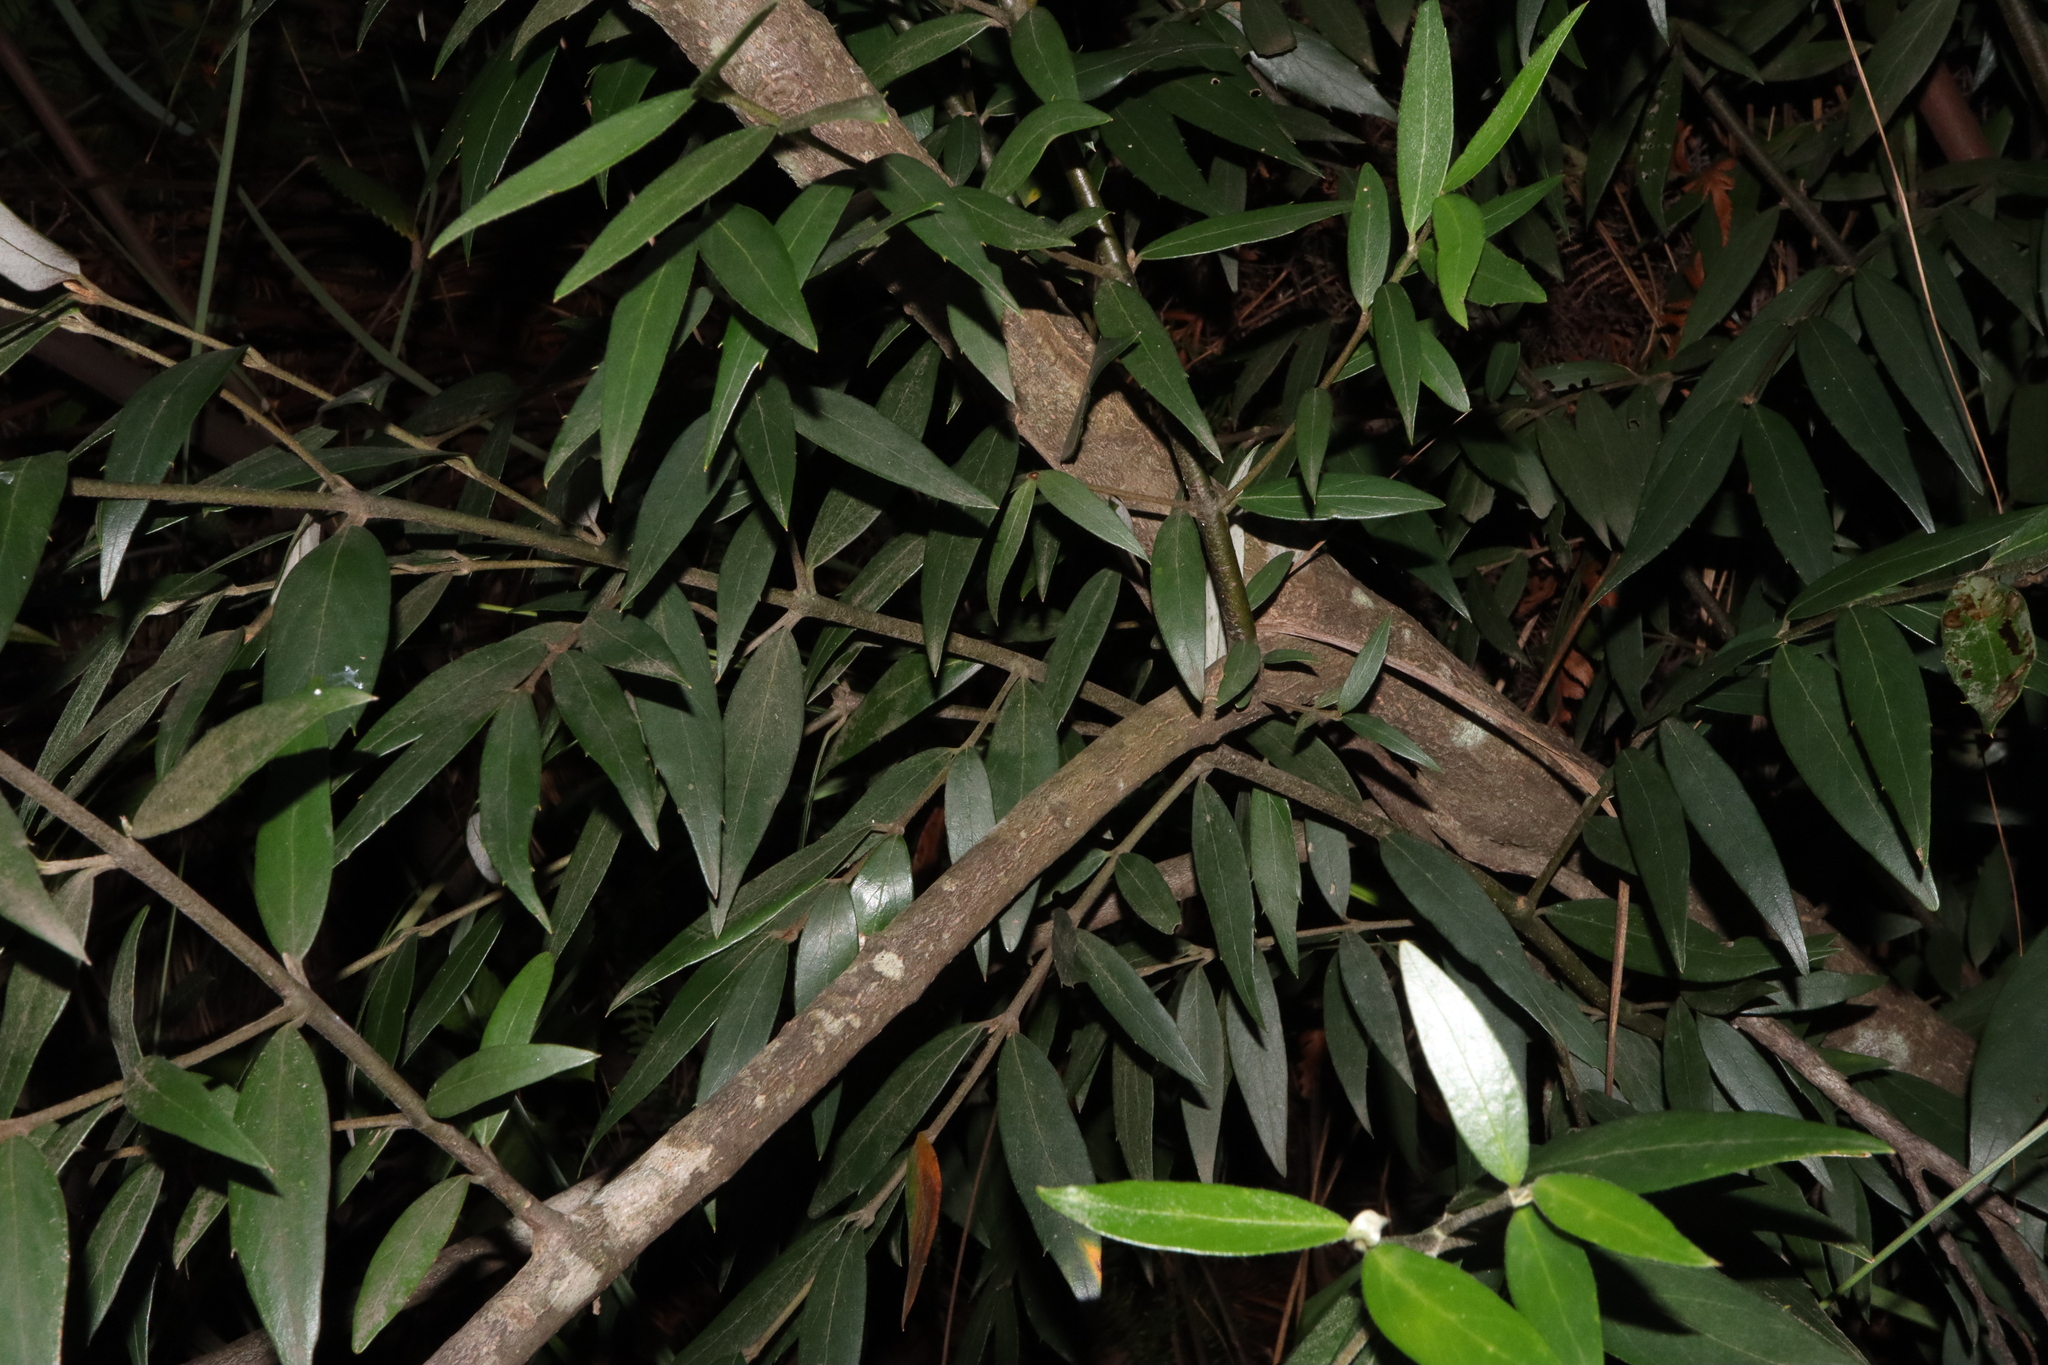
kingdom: Plantae
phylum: Tracheophyta
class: Magnoliopsida
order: Laurales
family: Atherospermataceae
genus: Atherosperma
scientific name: Atherosperma moschatum
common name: Tasmanian-sassafras
